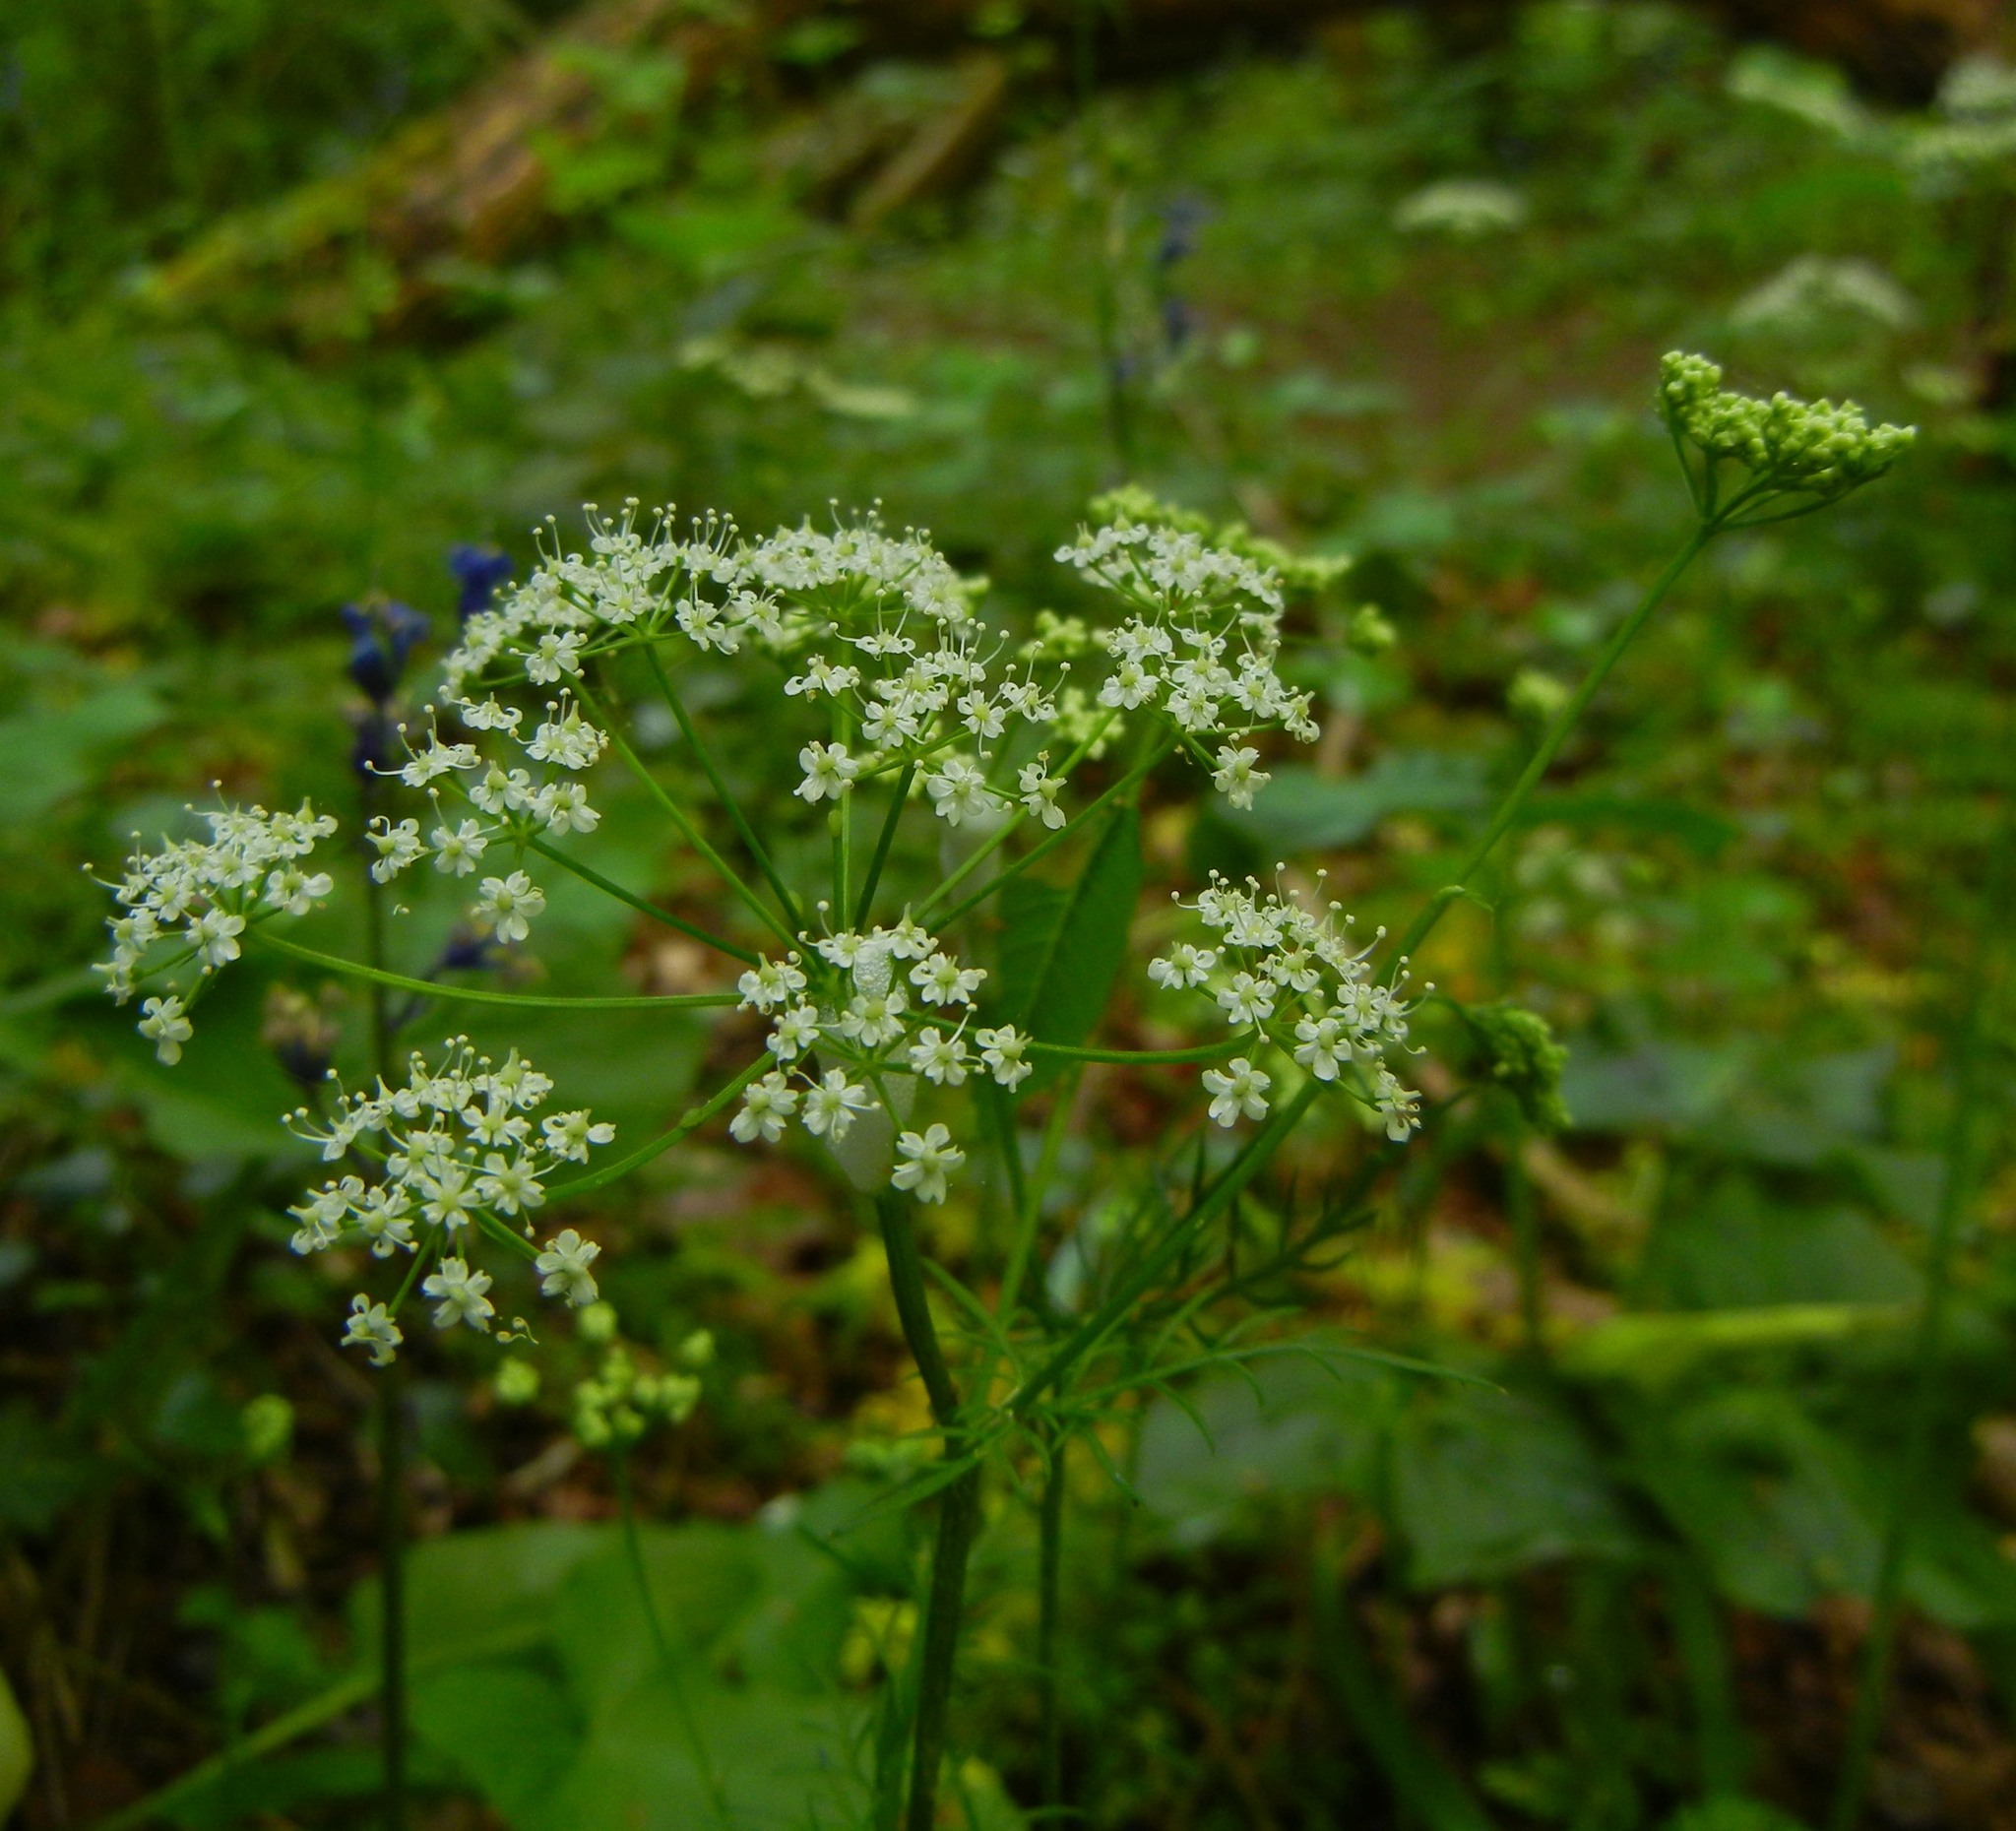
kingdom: Plantae
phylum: Tracheophyta
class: Magnoliopsida
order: Apiales
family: Apiaceae
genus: Conopodium
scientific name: Conopodium majus
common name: Pignut
